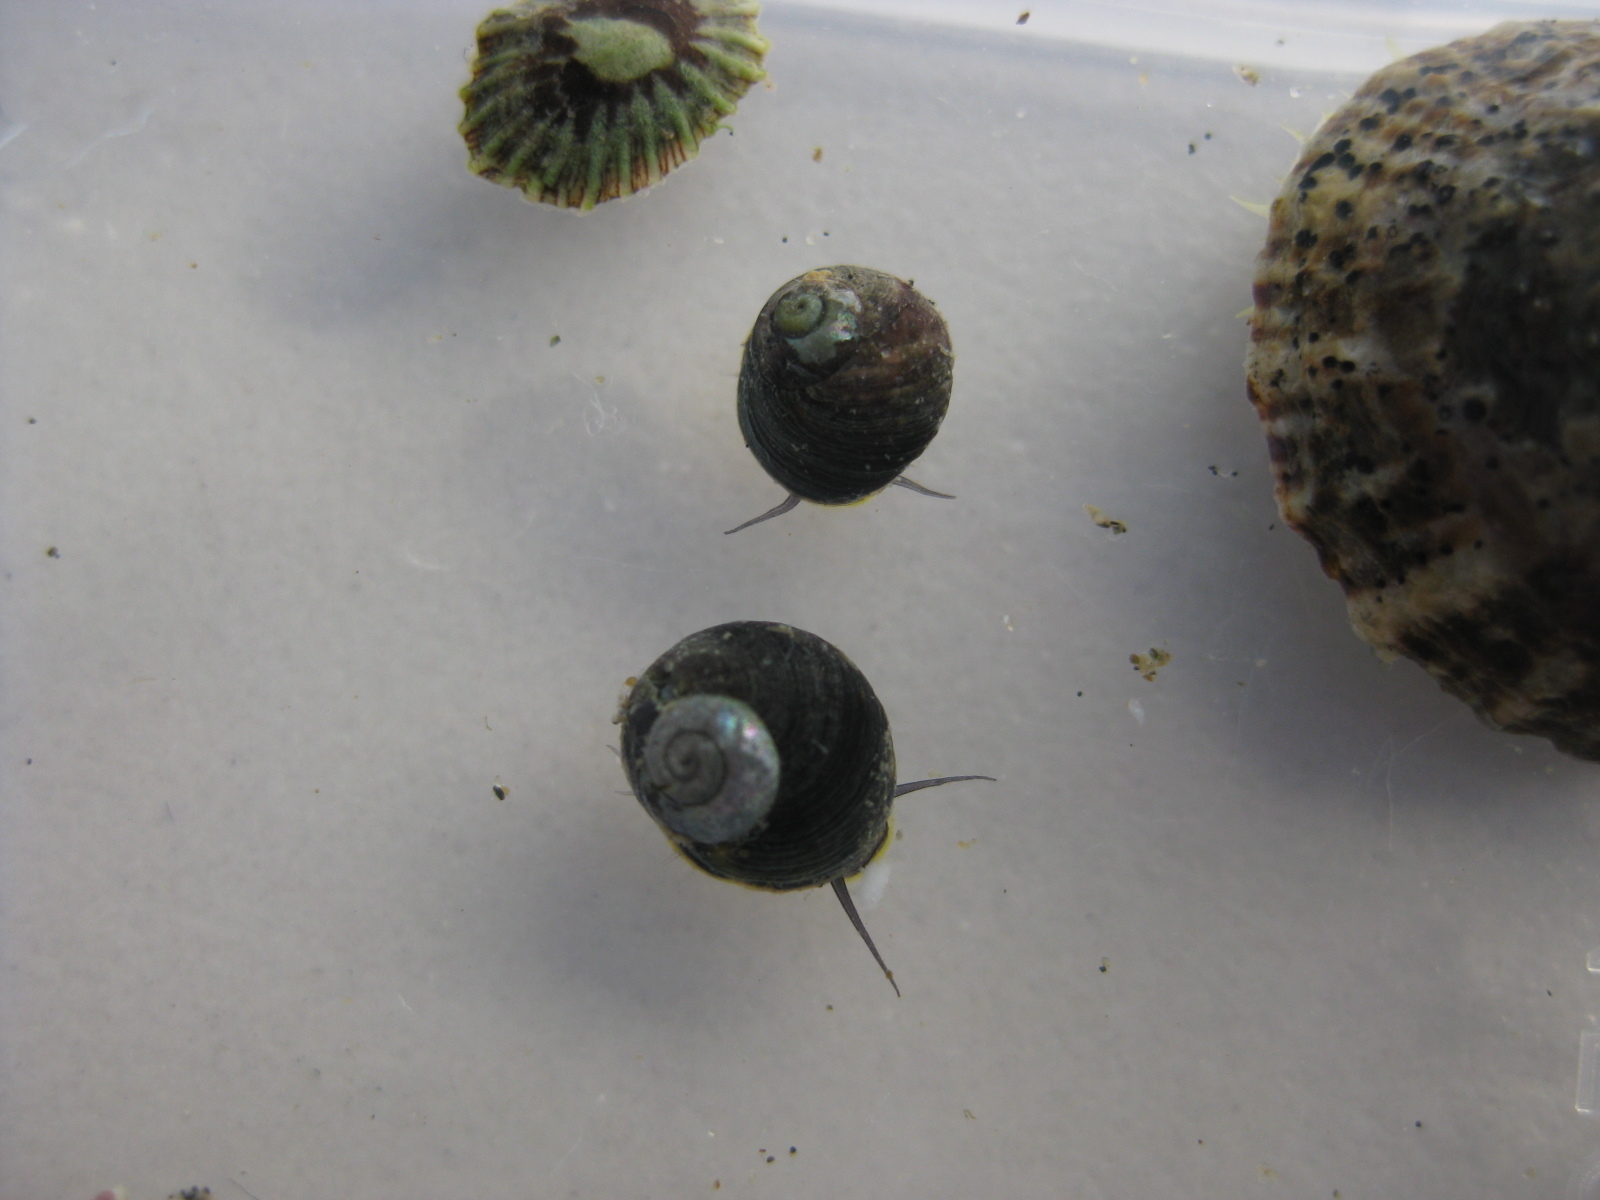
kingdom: Animalia
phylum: Mollusca
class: Gastropoda
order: Trochida
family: Trochidae
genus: Diloma
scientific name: Diloma coracinum
